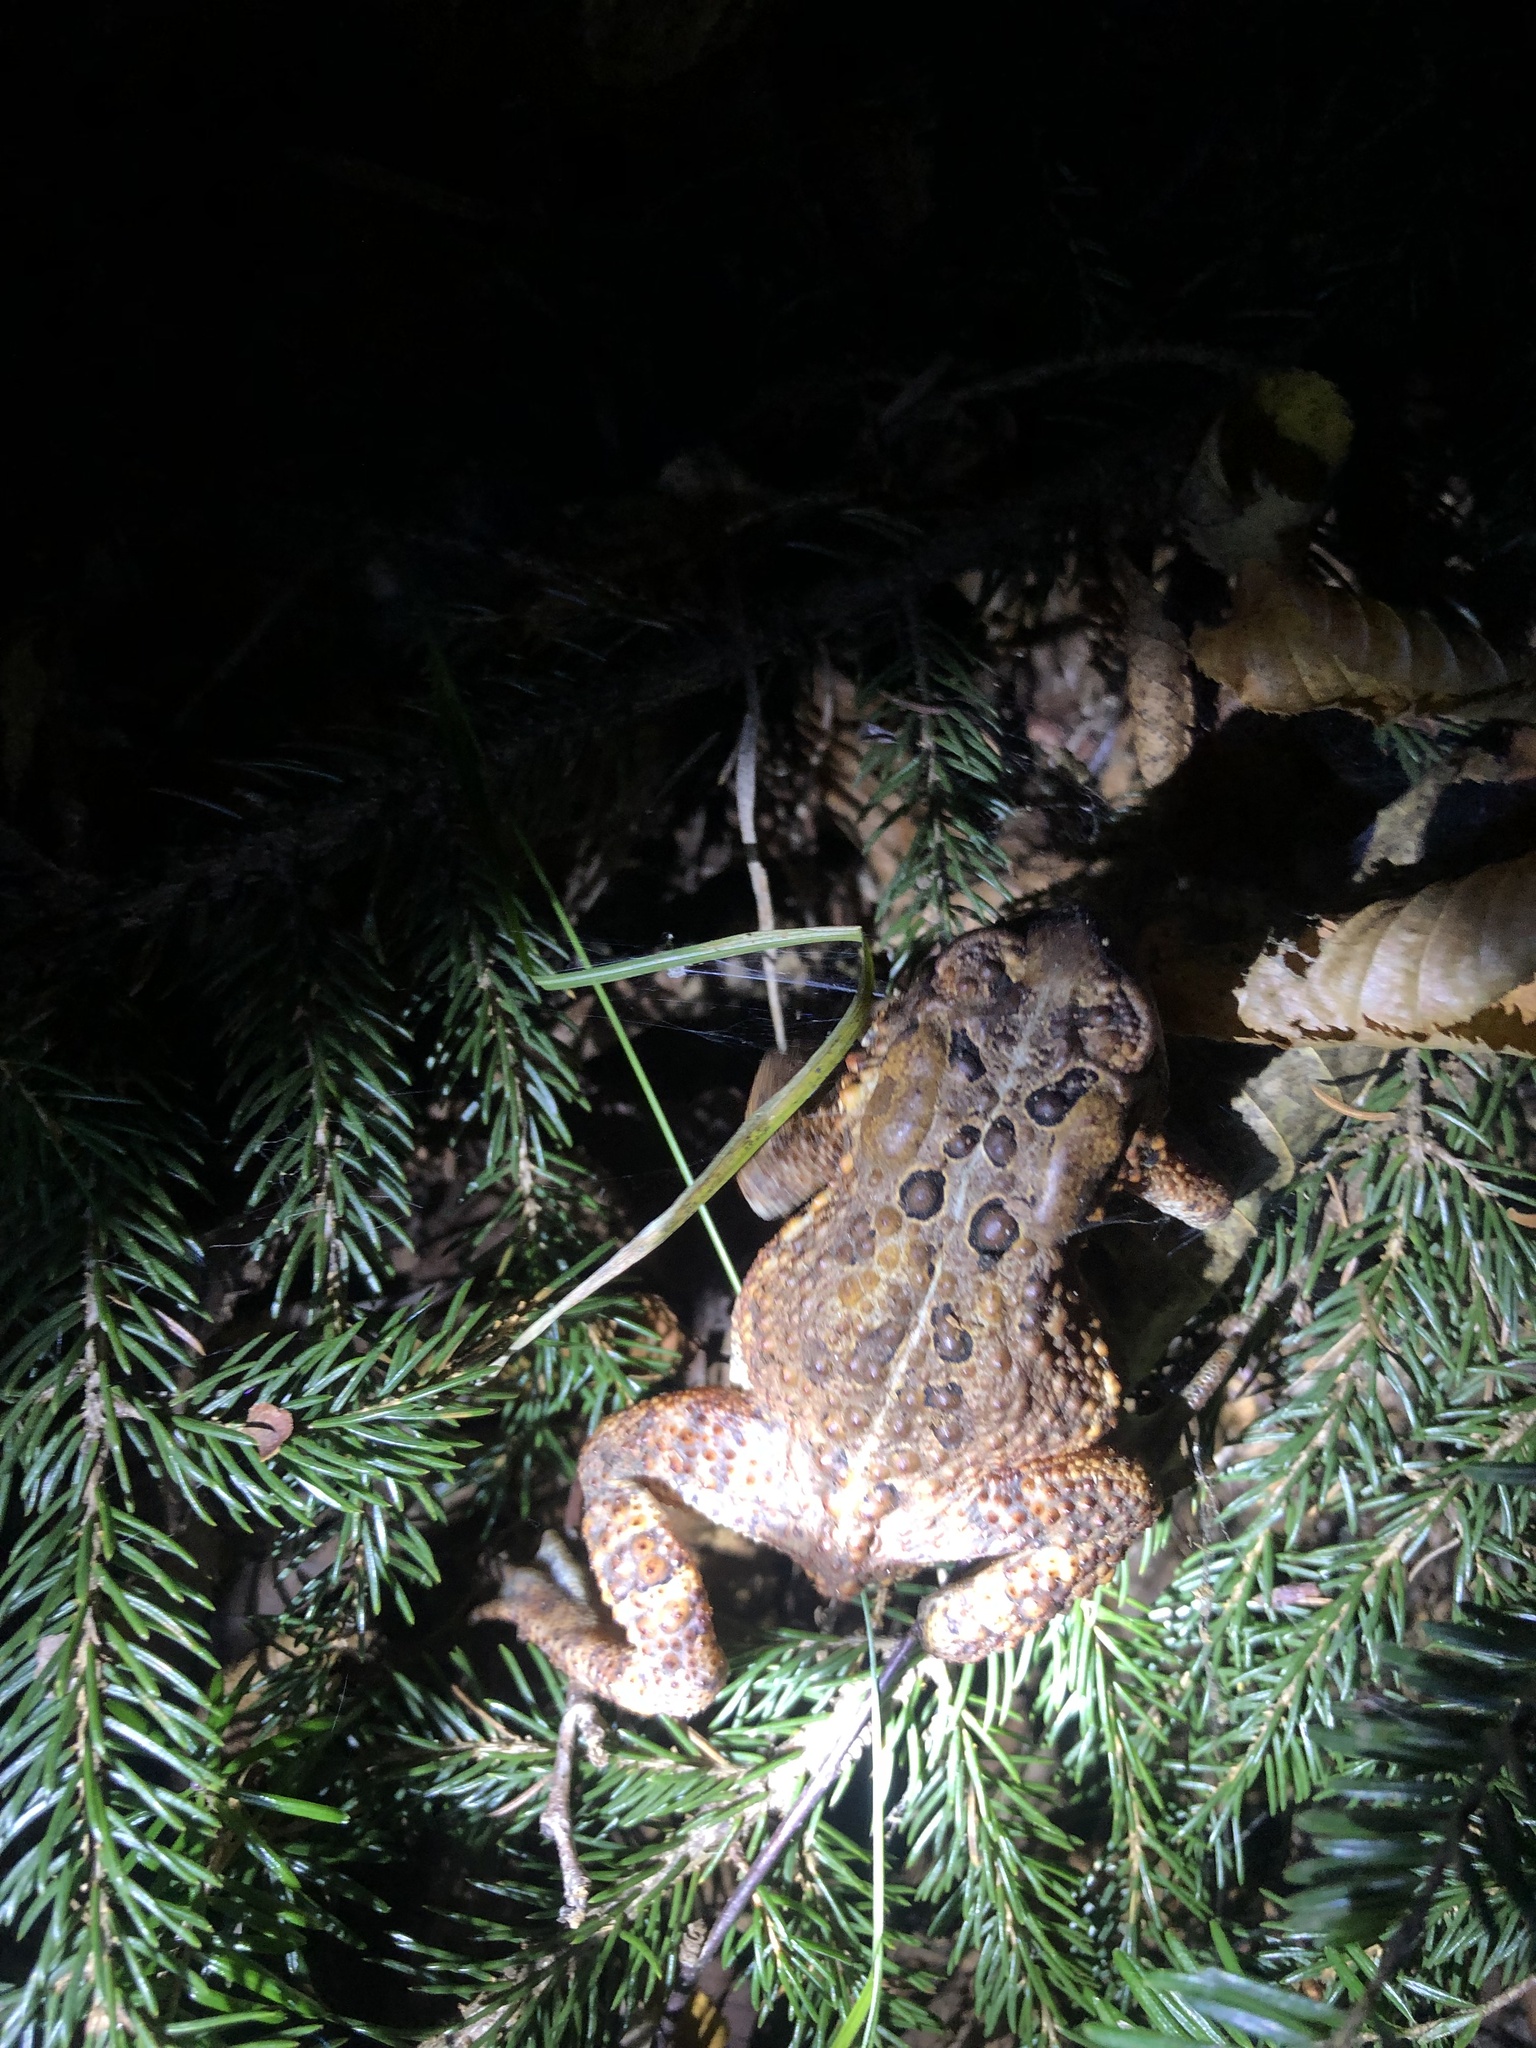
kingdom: Animalia
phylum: Chordata
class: Amphibia
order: Anura
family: Bufonidae
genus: Anaxyrus
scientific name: Anaxyrus americanus
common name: American toad
